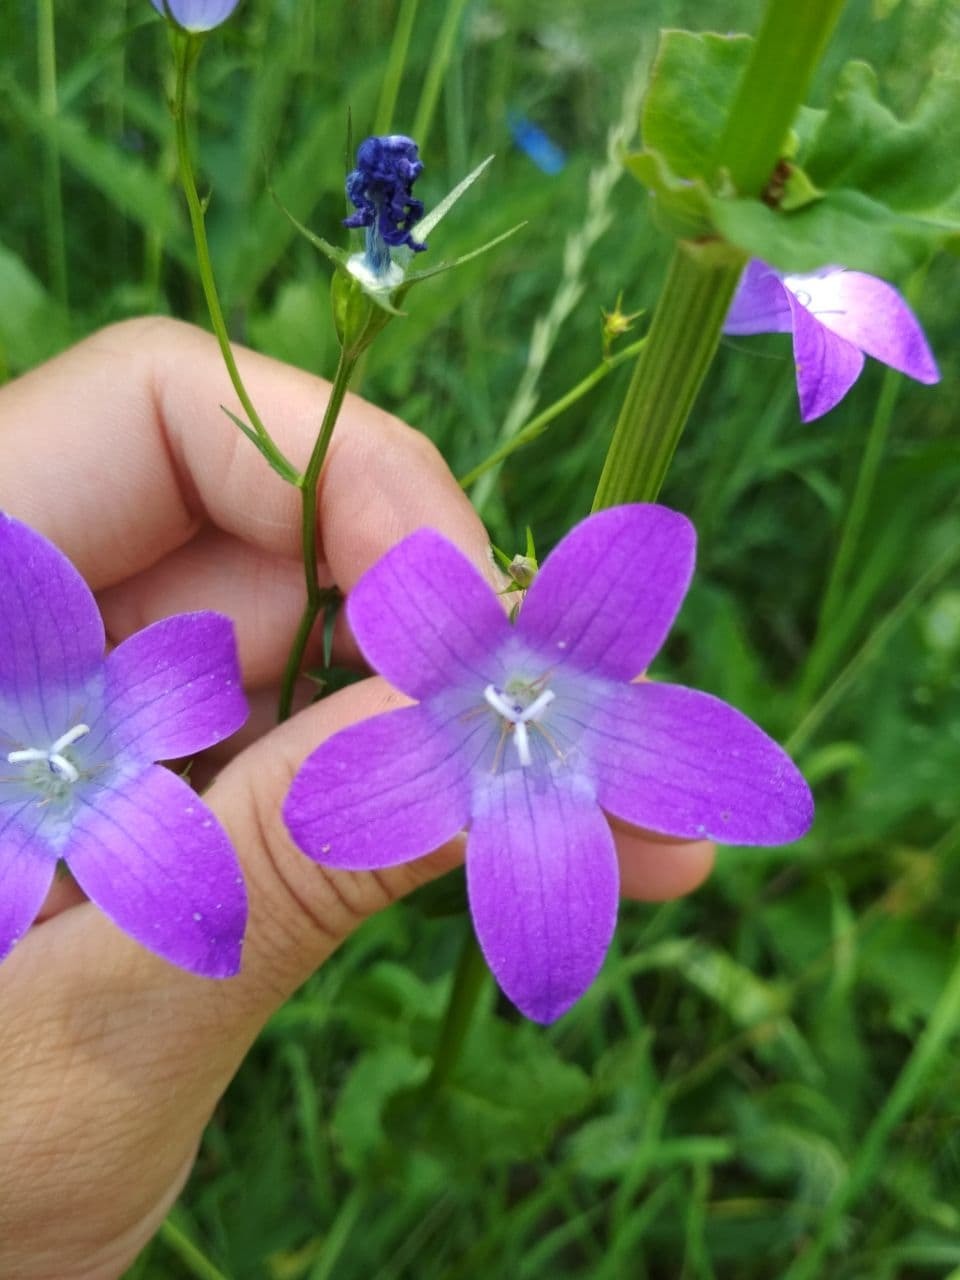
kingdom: Plantae
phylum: Tracheophyta
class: Magnoliopsida
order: Asterales
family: Campanulaceae
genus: Campanula
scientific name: Campanula patula
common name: Spreading bellflower
